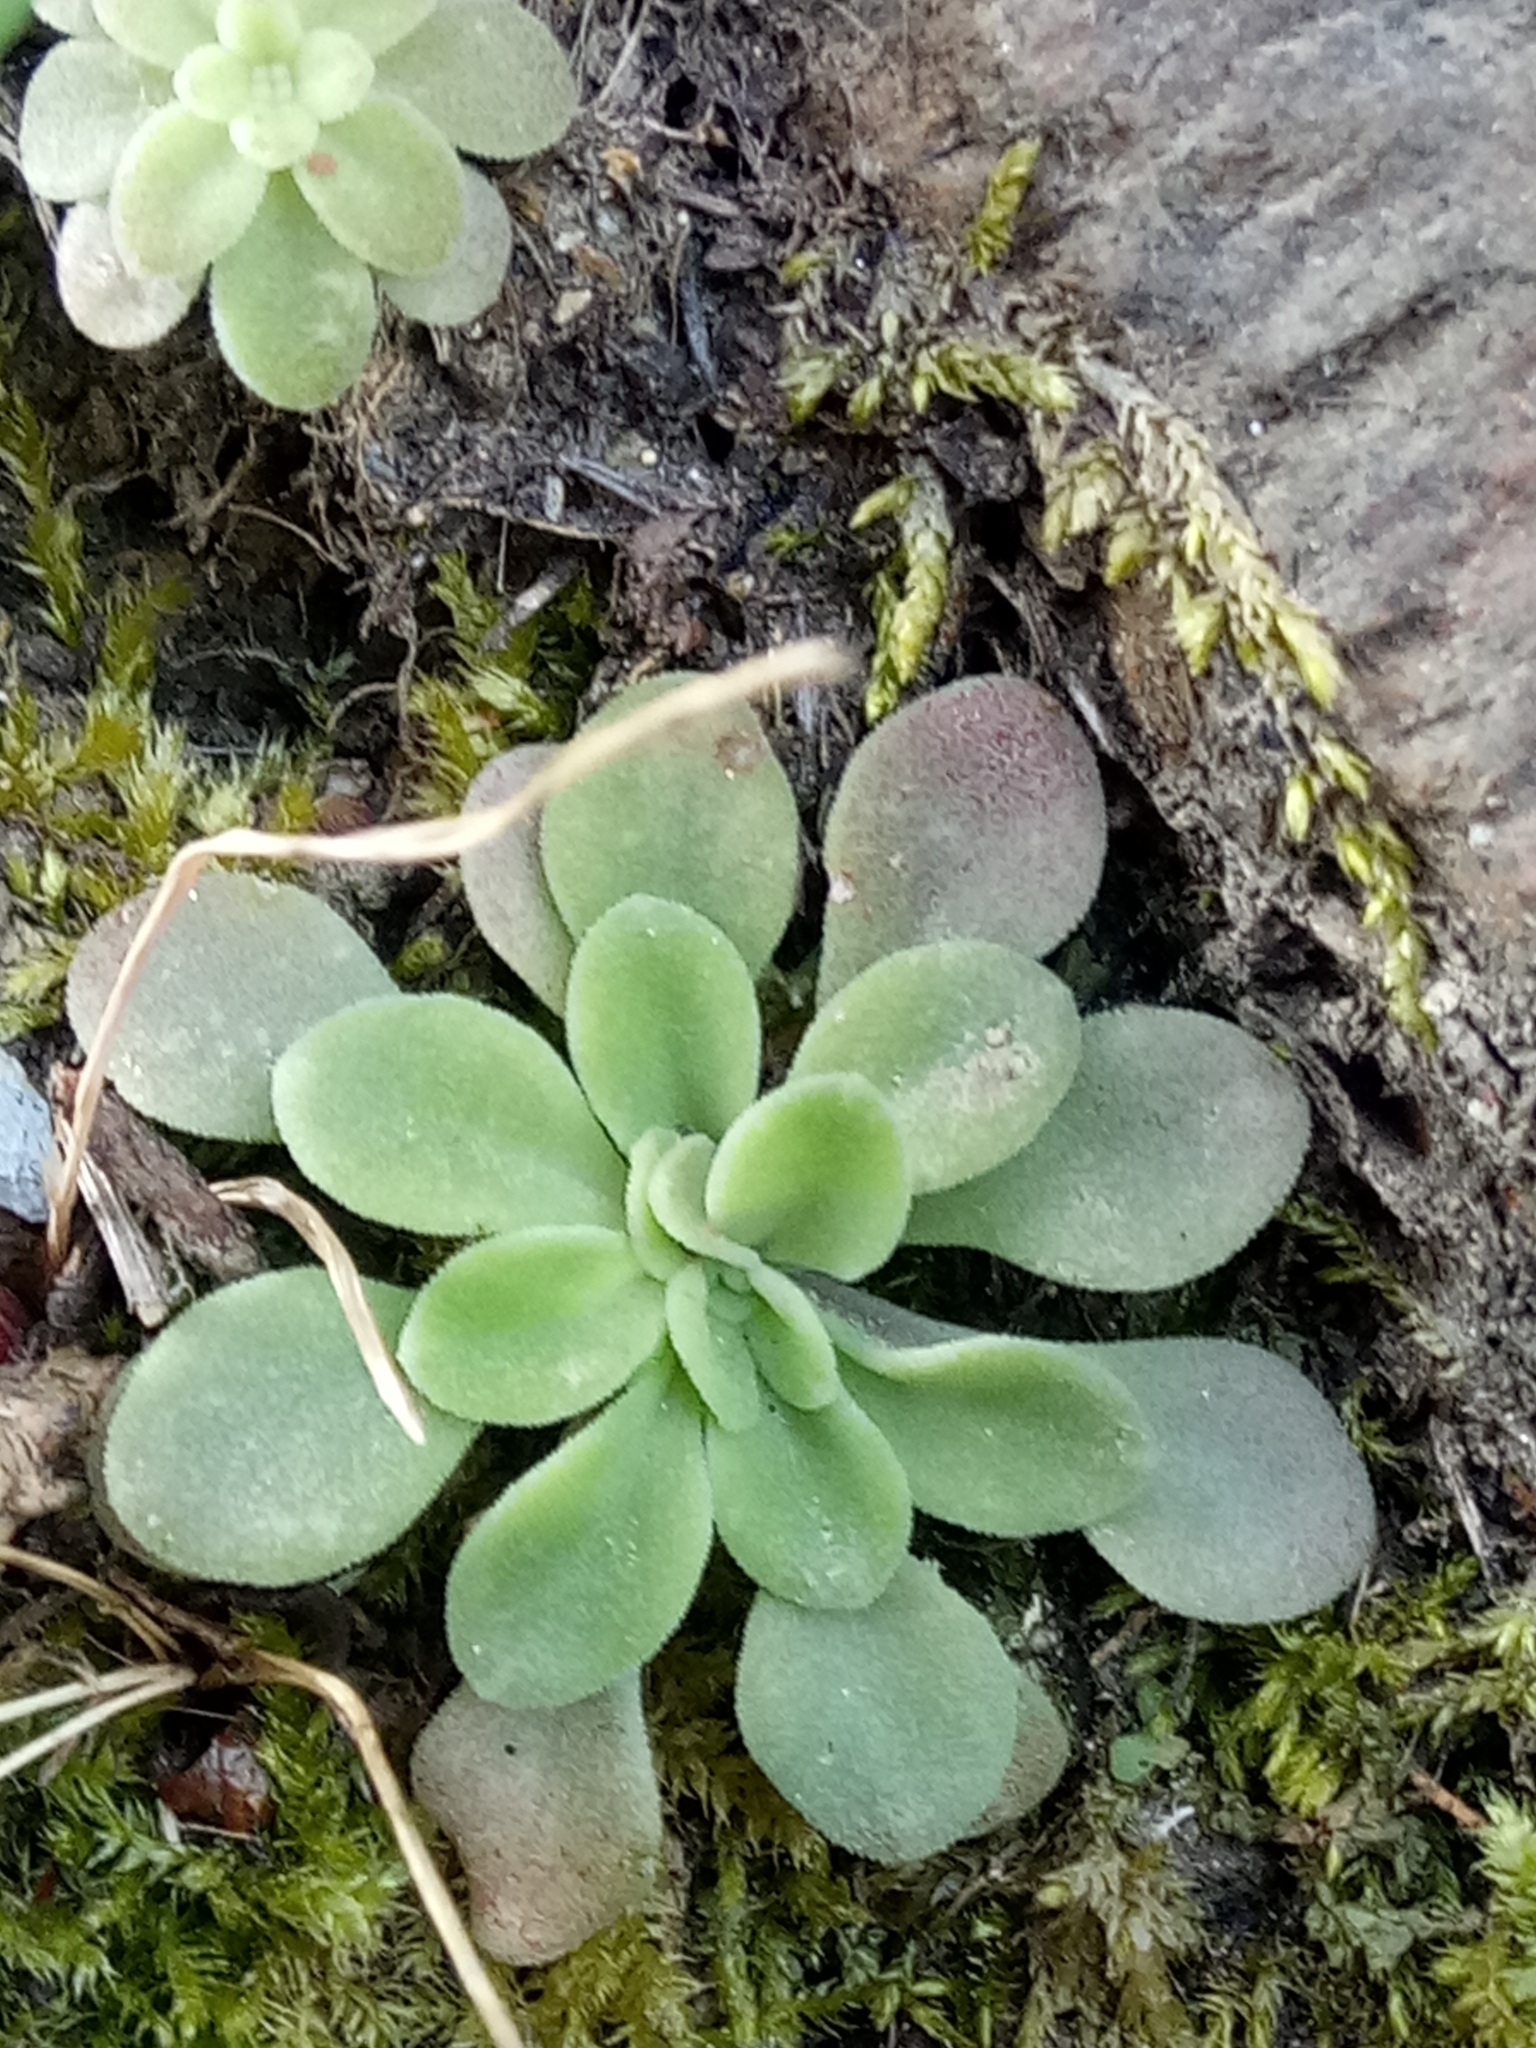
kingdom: Plantae
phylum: Tracheophyta
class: Magnoliopsida
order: Saxifragales
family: Crassulaceae
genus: Sedum
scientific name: Sedum cepaea
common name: Pink stonecrop
